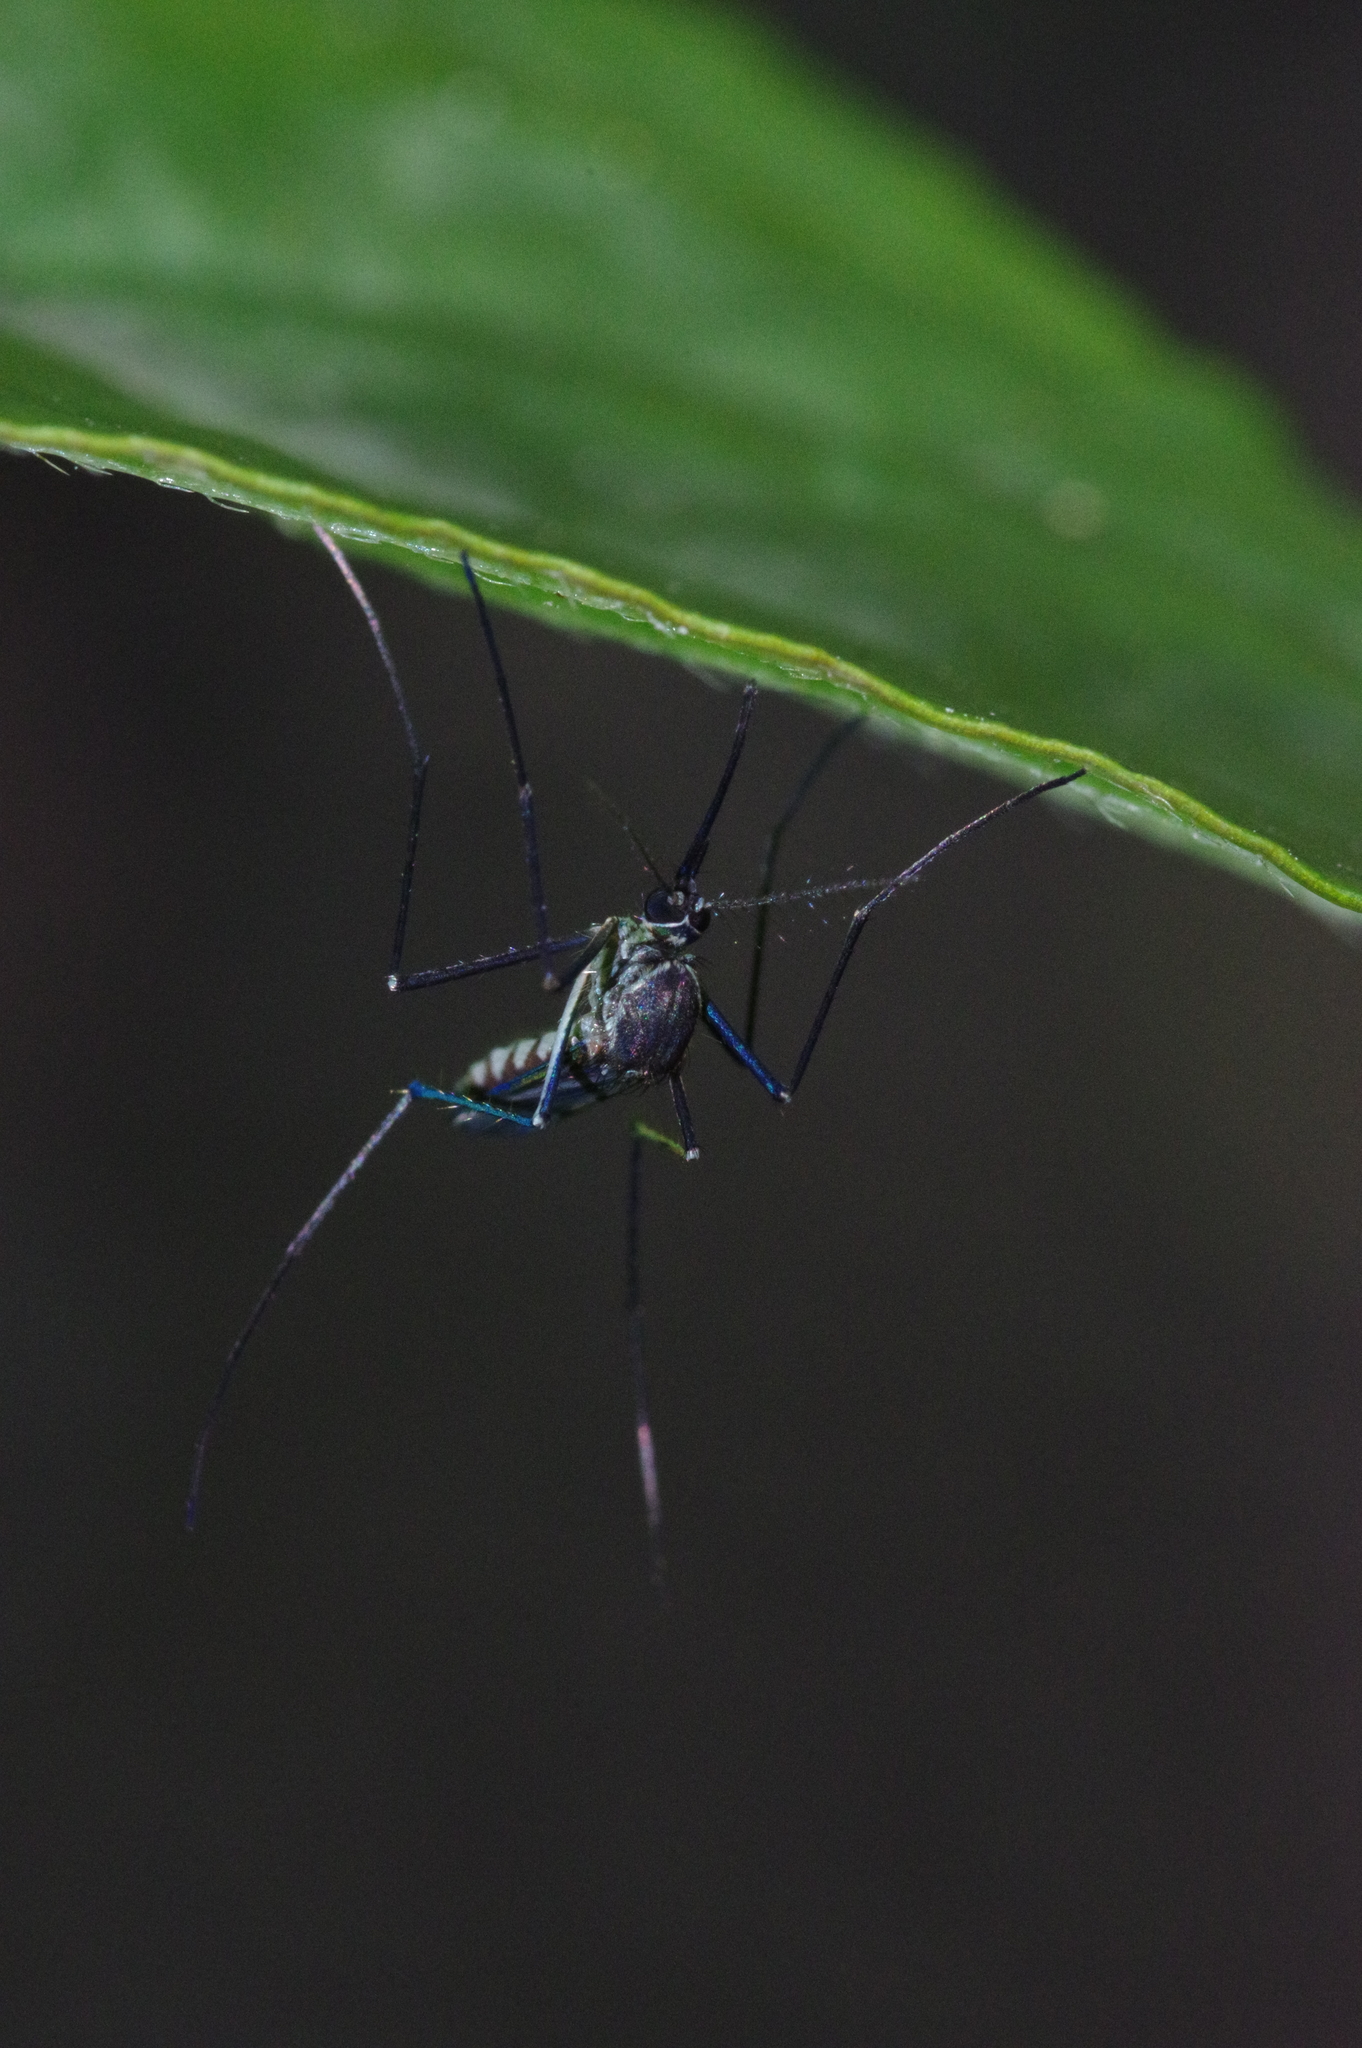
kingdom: Animalia
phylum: Arthropoda
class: Insecta
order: Diptera
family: Culicidae
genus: Armigeres
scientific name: Armigeres subalbatus
